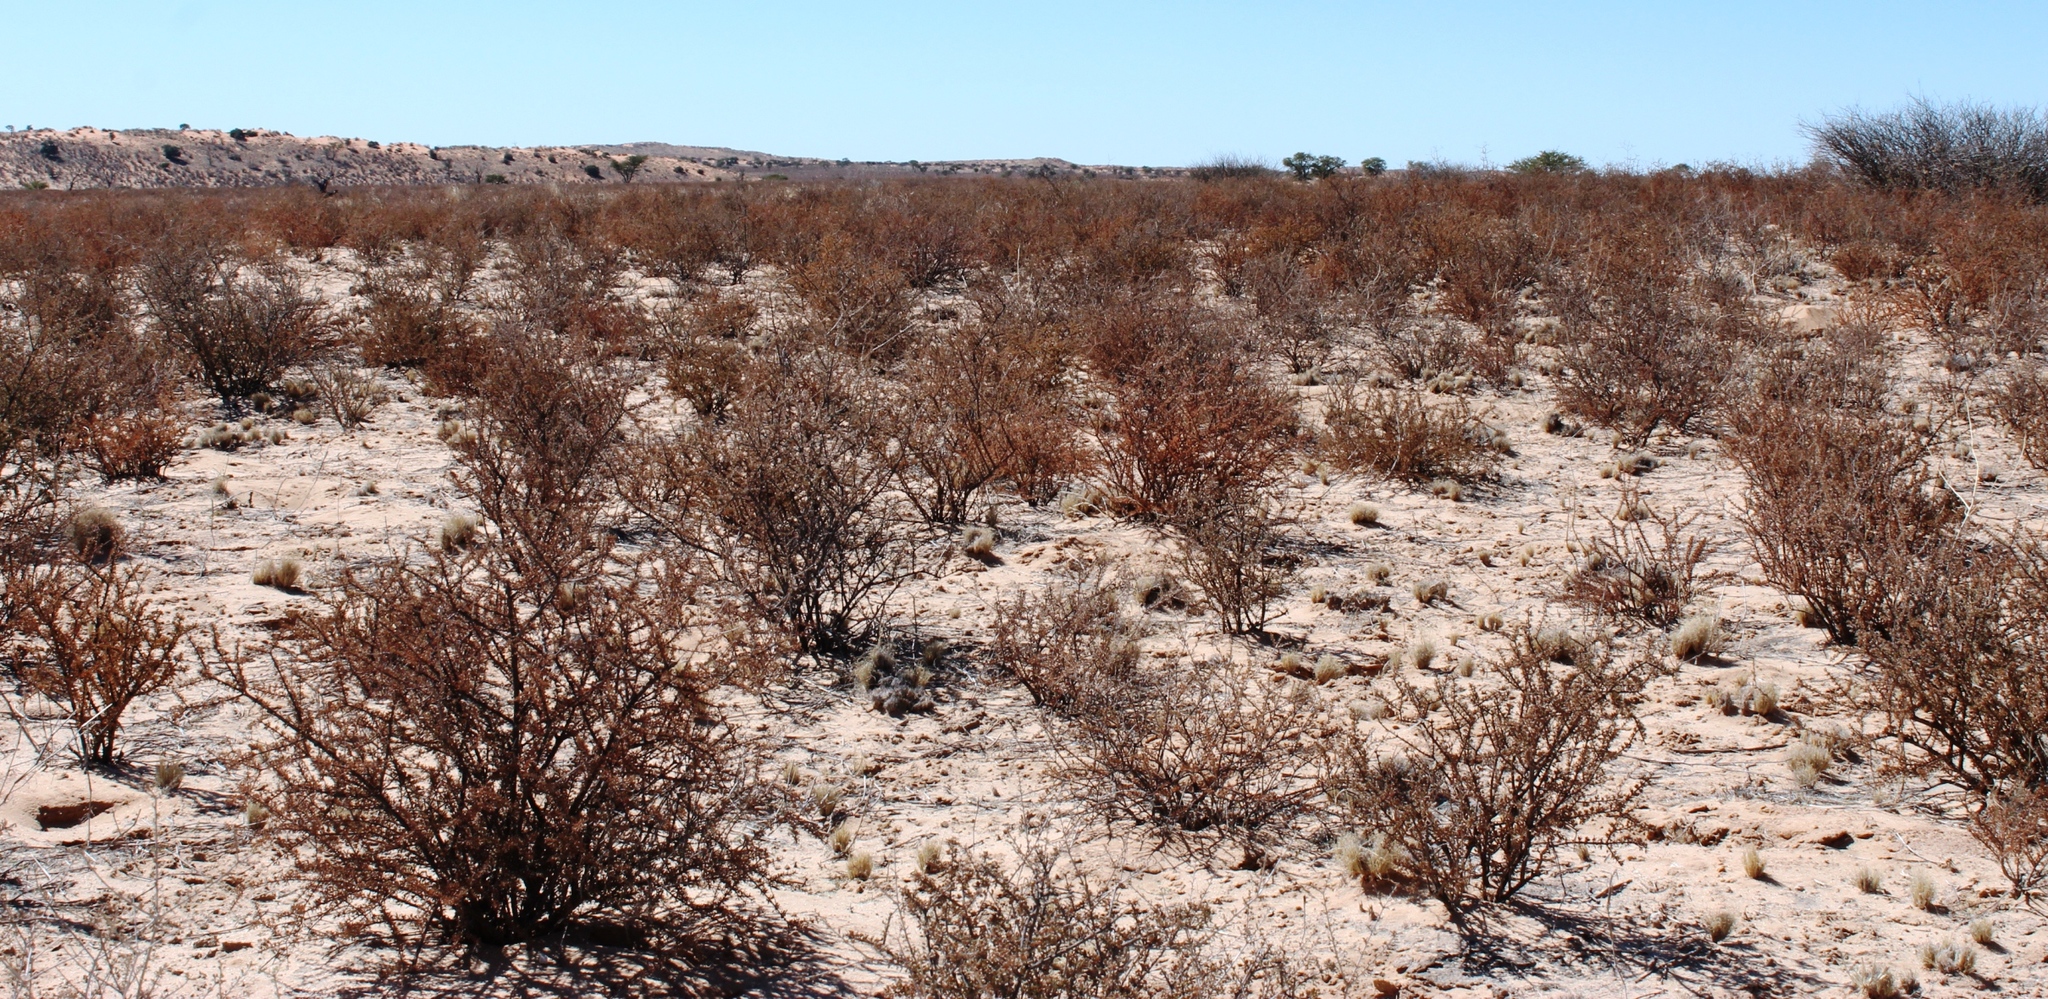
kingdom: Plantae
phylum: Tracheophyta
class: Magnoliopsida
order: Lamiales
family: Bignoniaceae
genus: Rhigozum
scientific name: Rhigozum trichotomum
